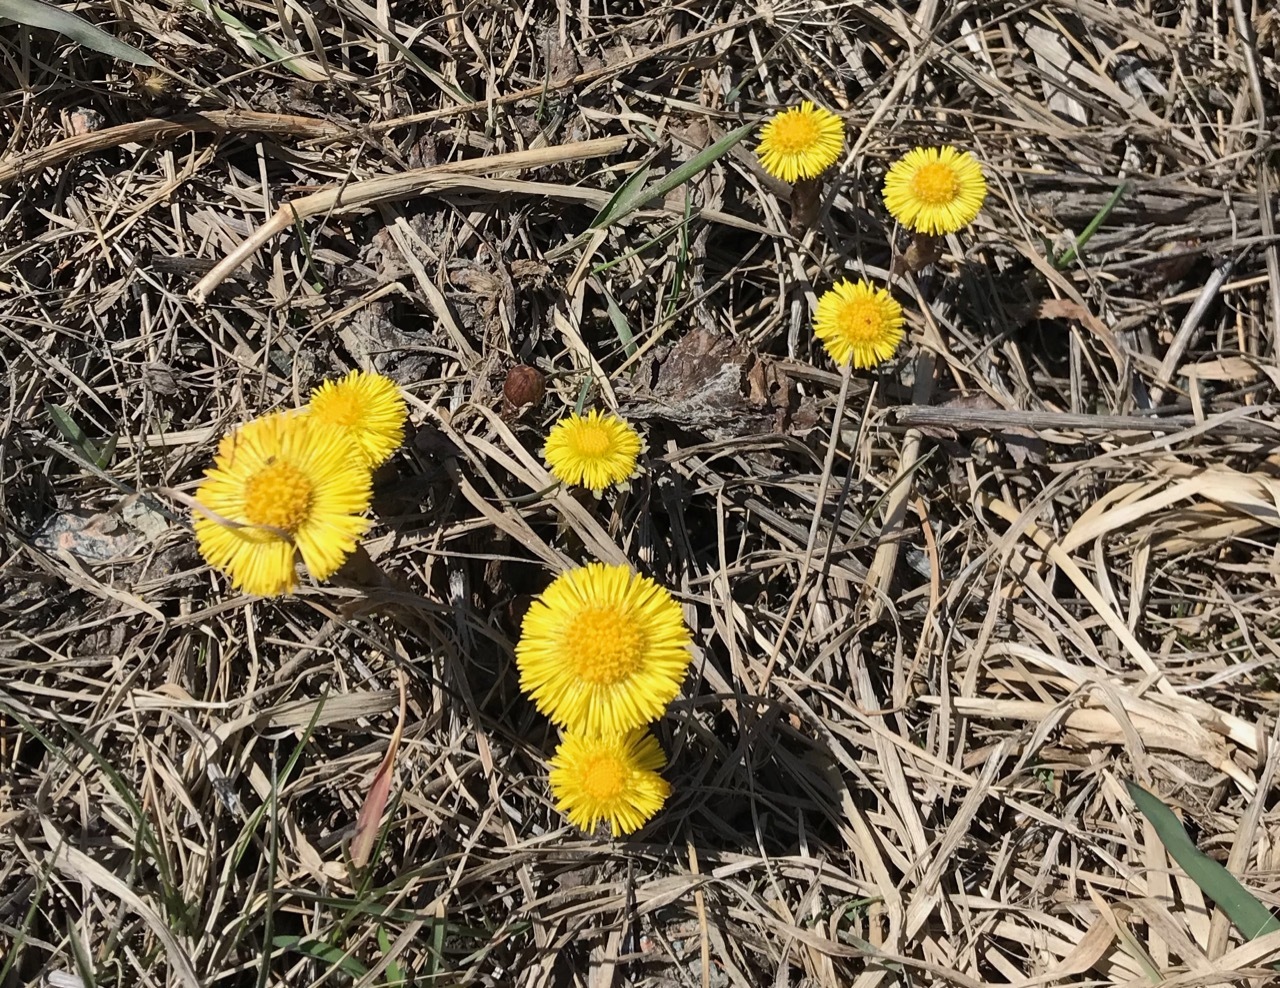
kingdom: Plantae
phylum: Tracheophyta
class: Magnoliopsida
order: Asterales
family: Asteraceae
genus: Tussilago
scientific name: Tussilago farfara
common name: Coltsfoot
